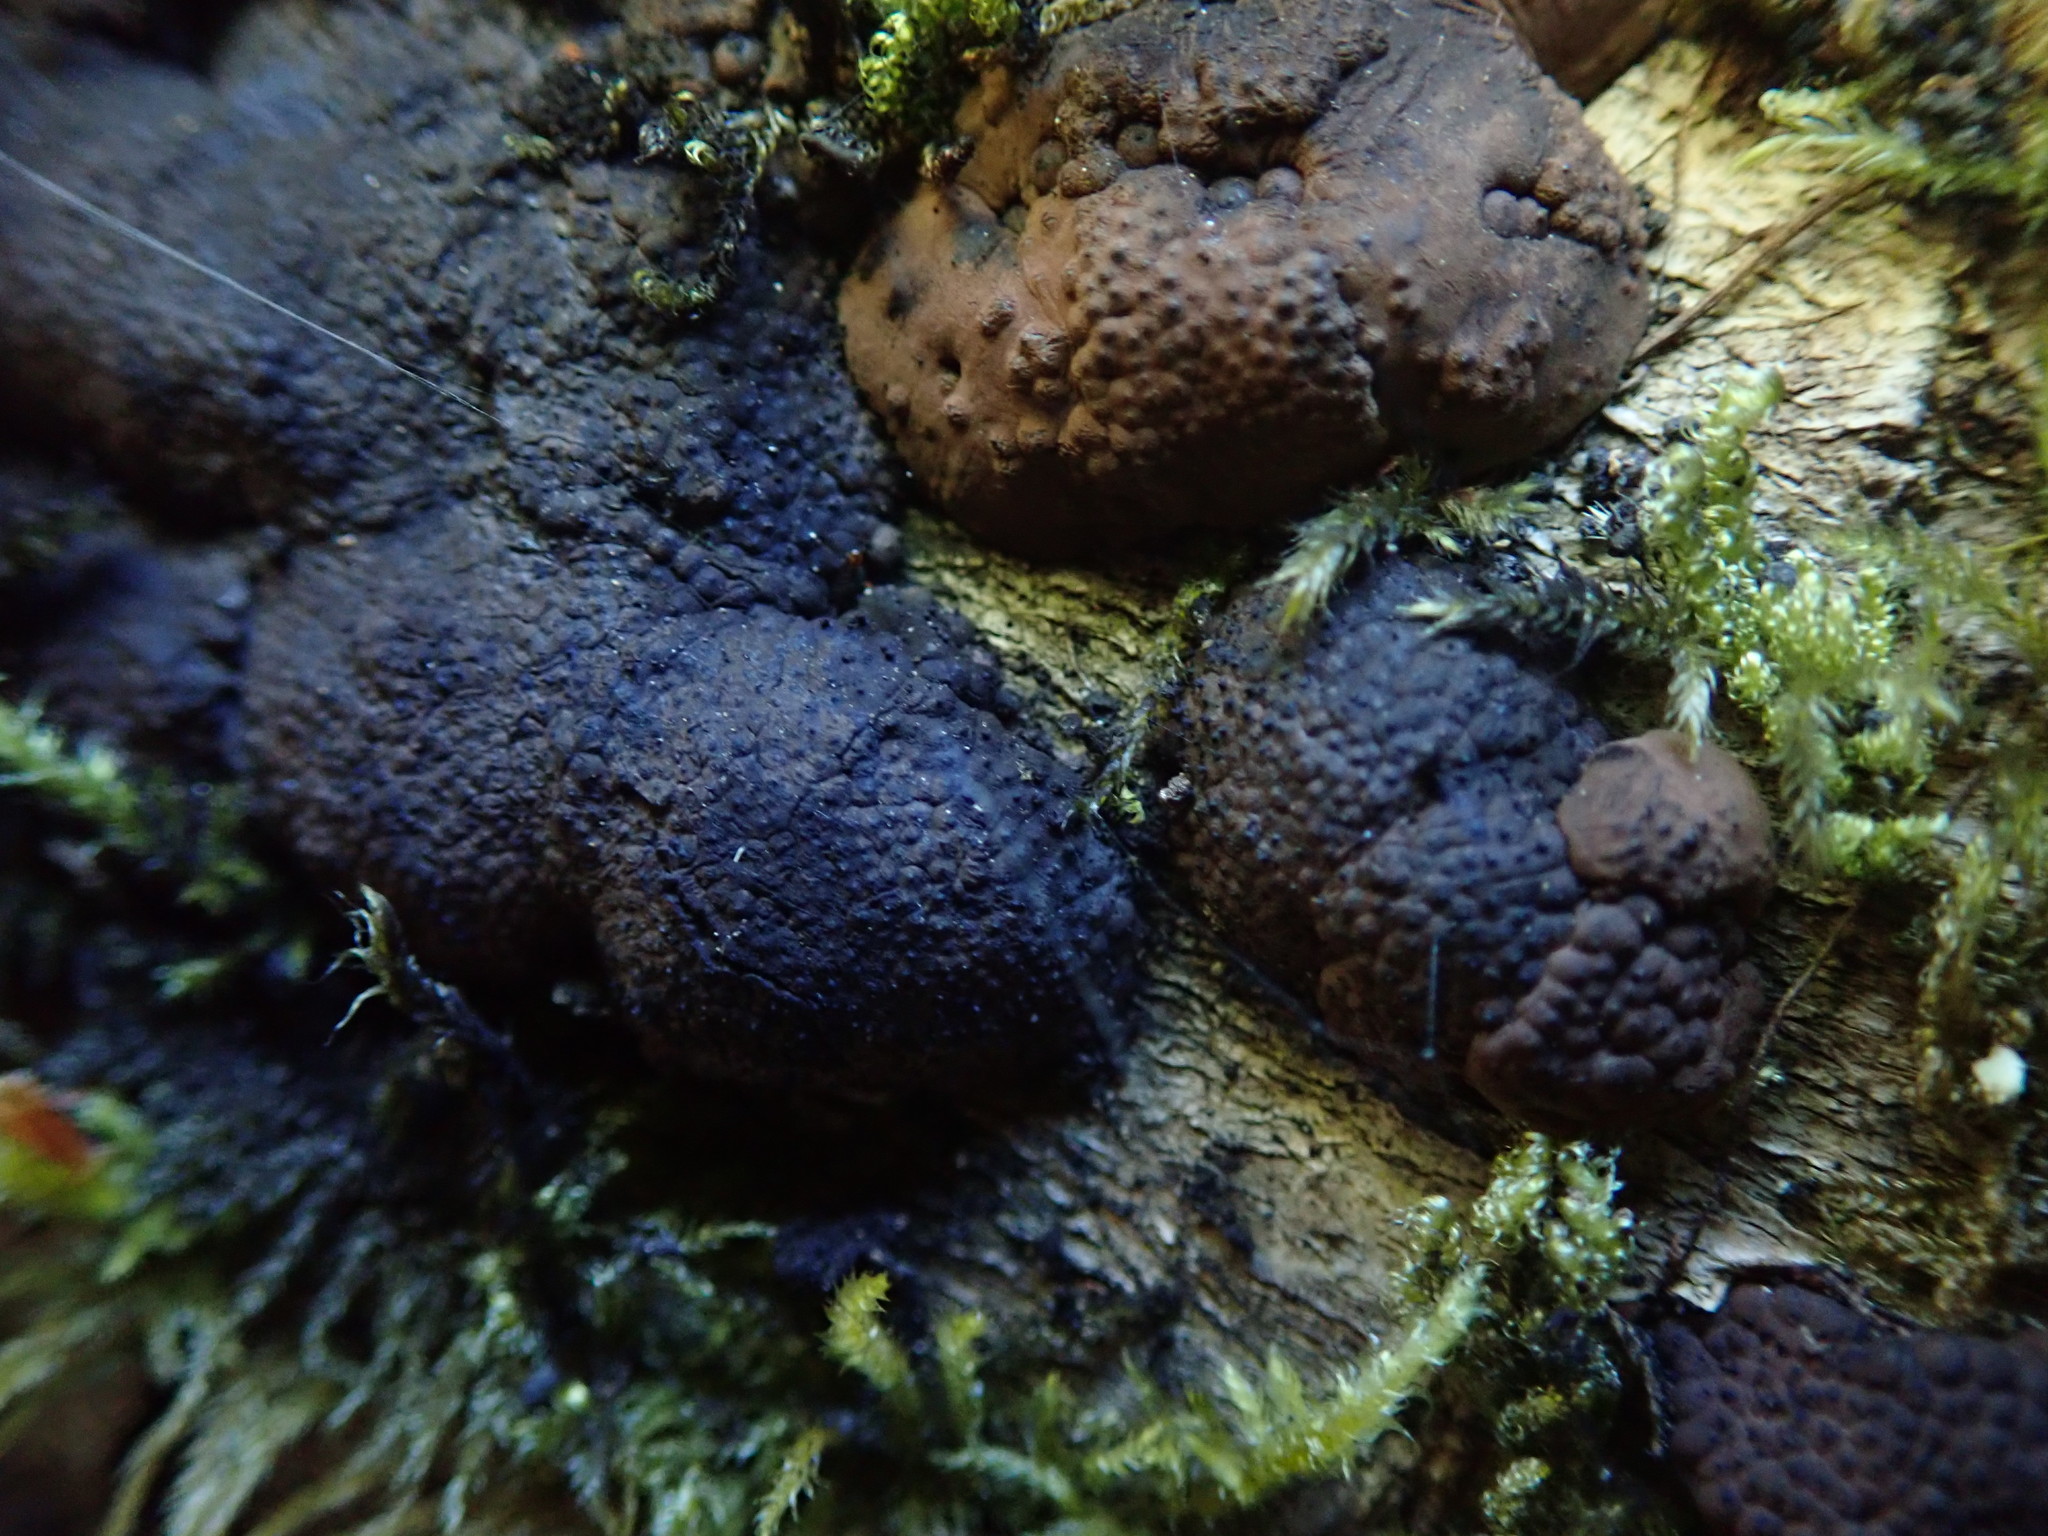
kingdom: Fungi
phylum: Ascomycota
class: Sordariomycetes
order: Xylariales
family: Xylariaceae
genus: Kretzschmaria
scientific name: Kretzschmaria deusta
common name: Brittle cinder
